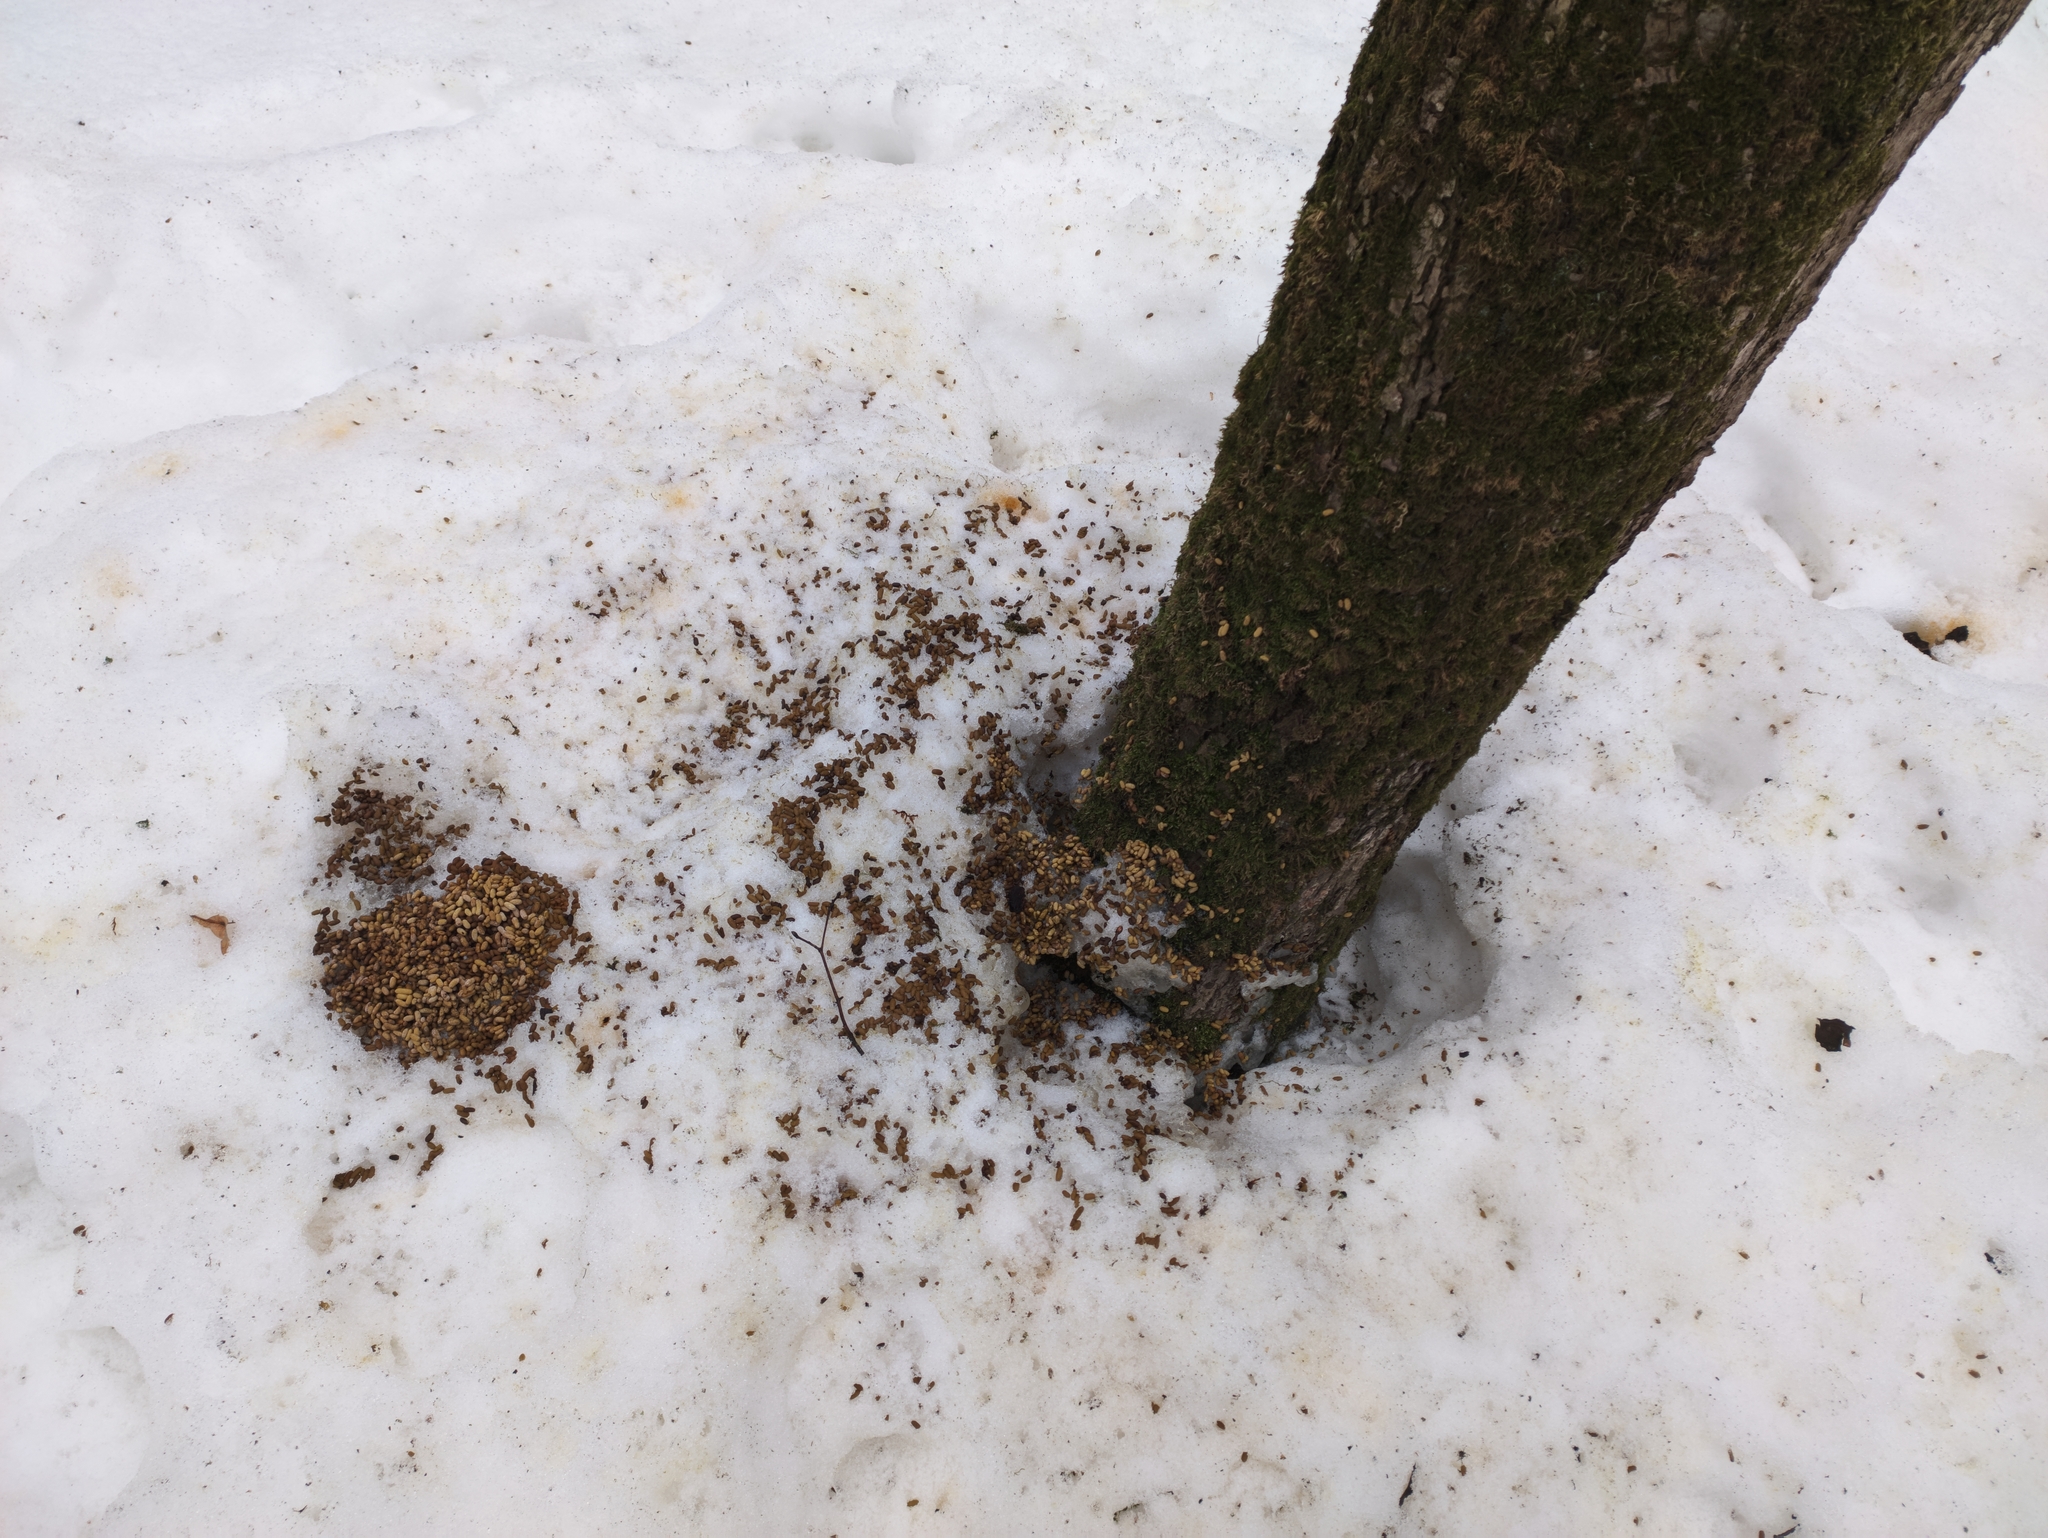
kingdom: Animalia
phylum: Chordata
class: Mammalia
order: Rodentia
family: Sciuridae
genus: Pteromys
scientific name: Pteromys volans
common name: Siberian flying squirrel
